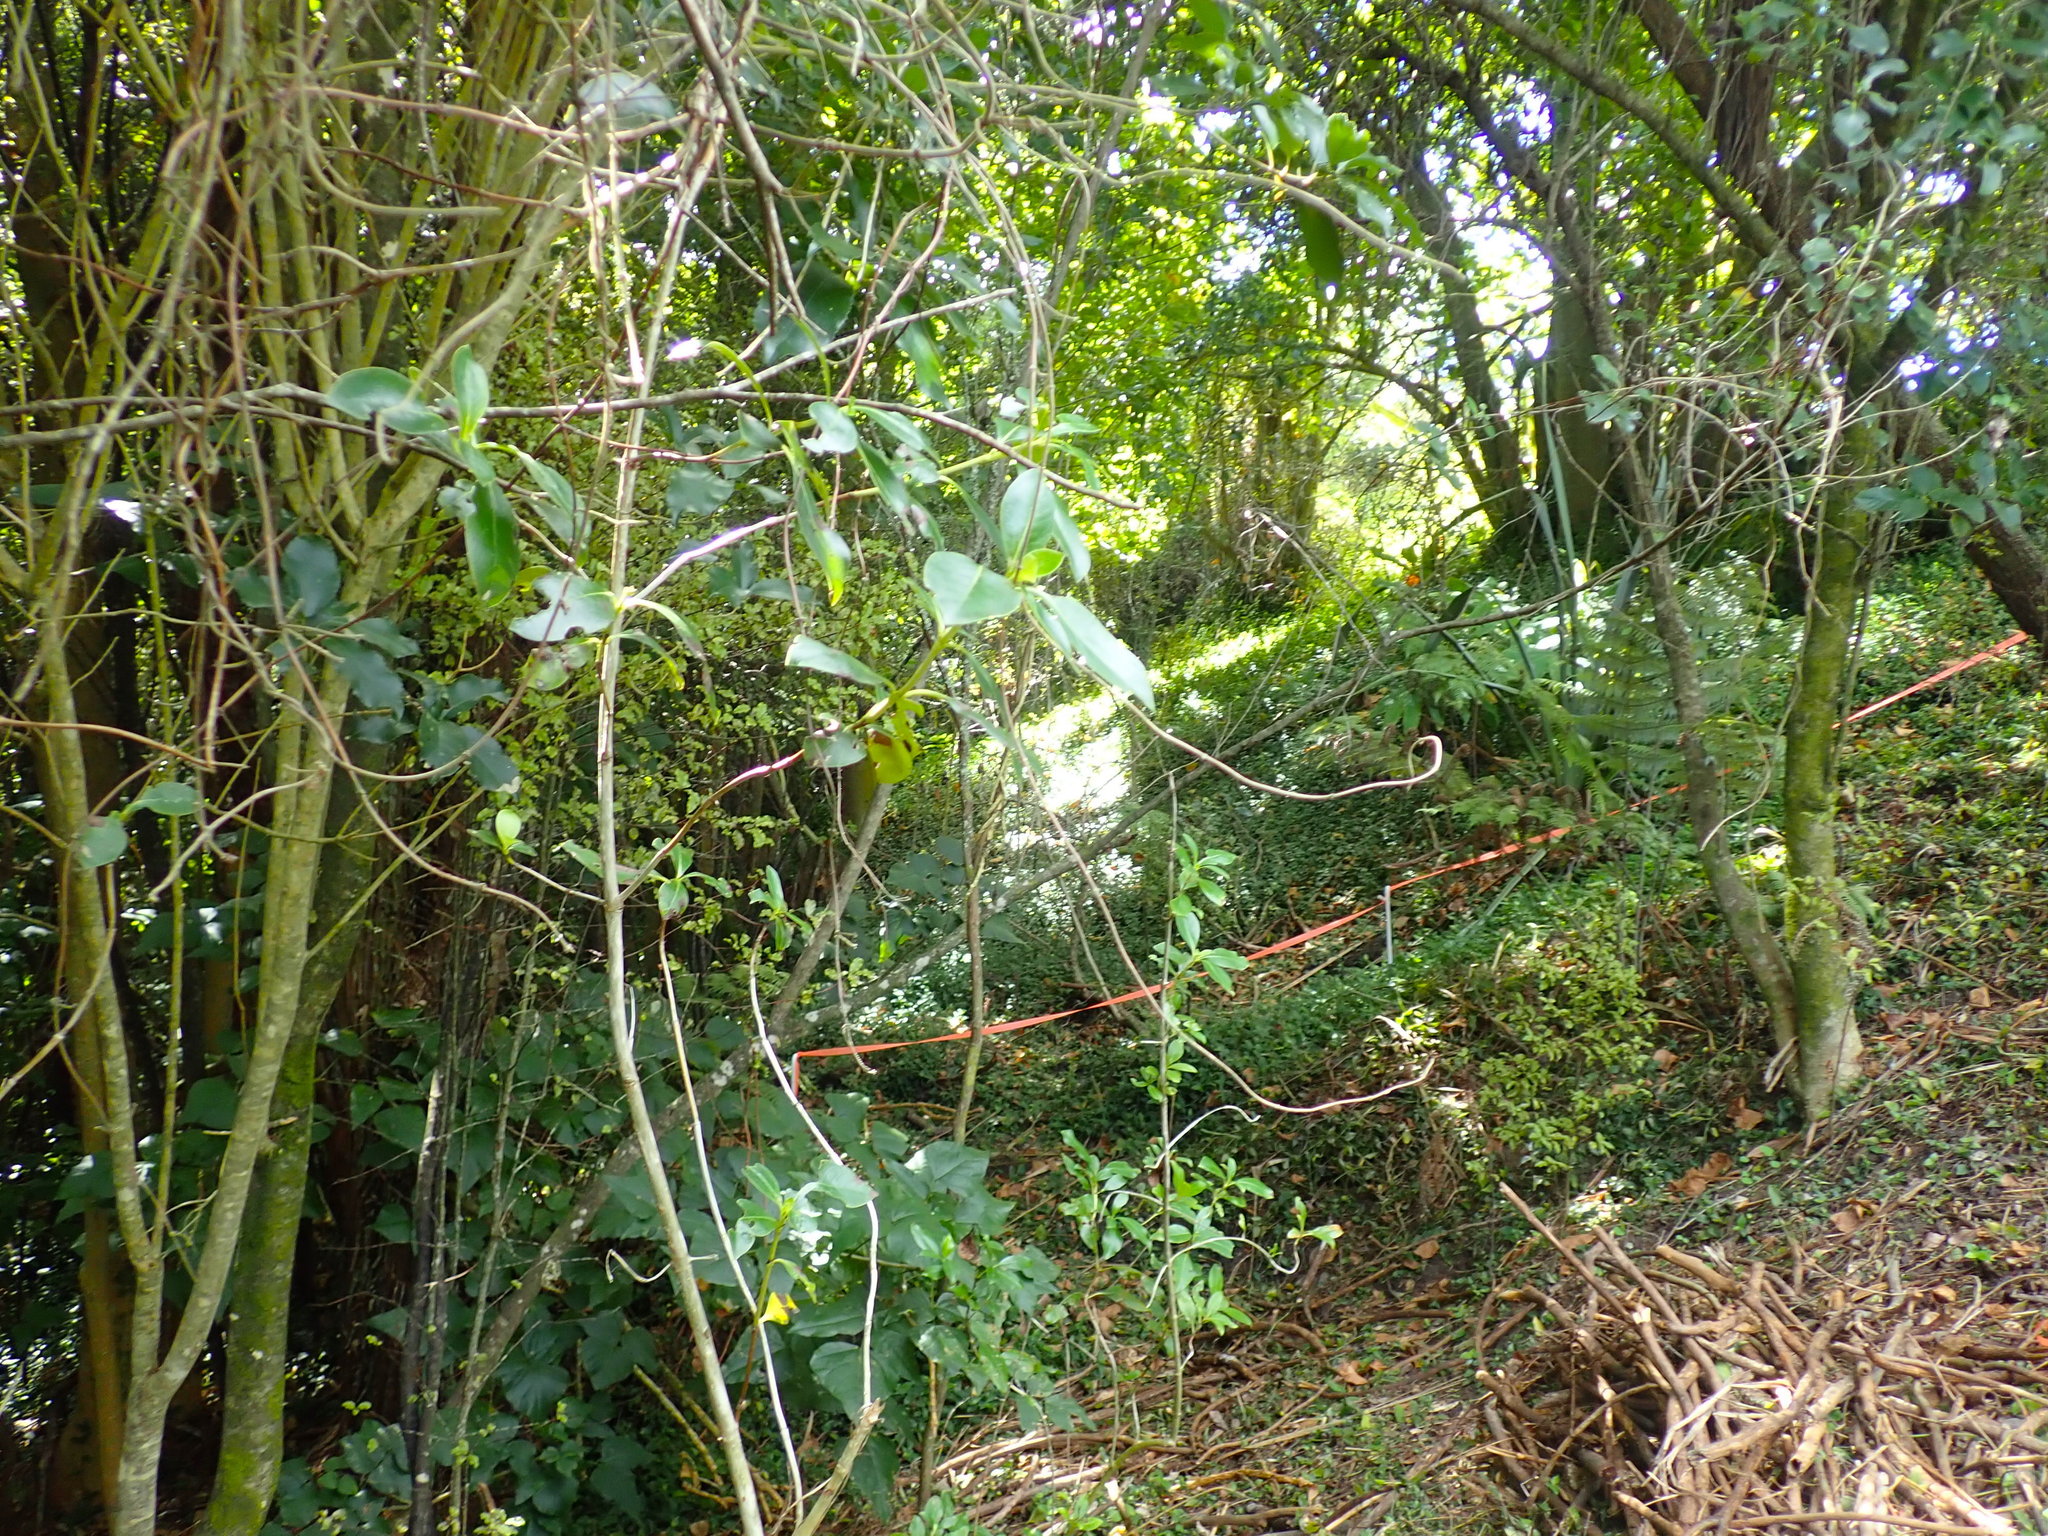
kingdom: Plantae
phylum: Tracheophyta
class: Magnoliopsida
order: Gentianales
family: Rubiaceae
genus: Coprosma
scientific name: Coprosma robusta
